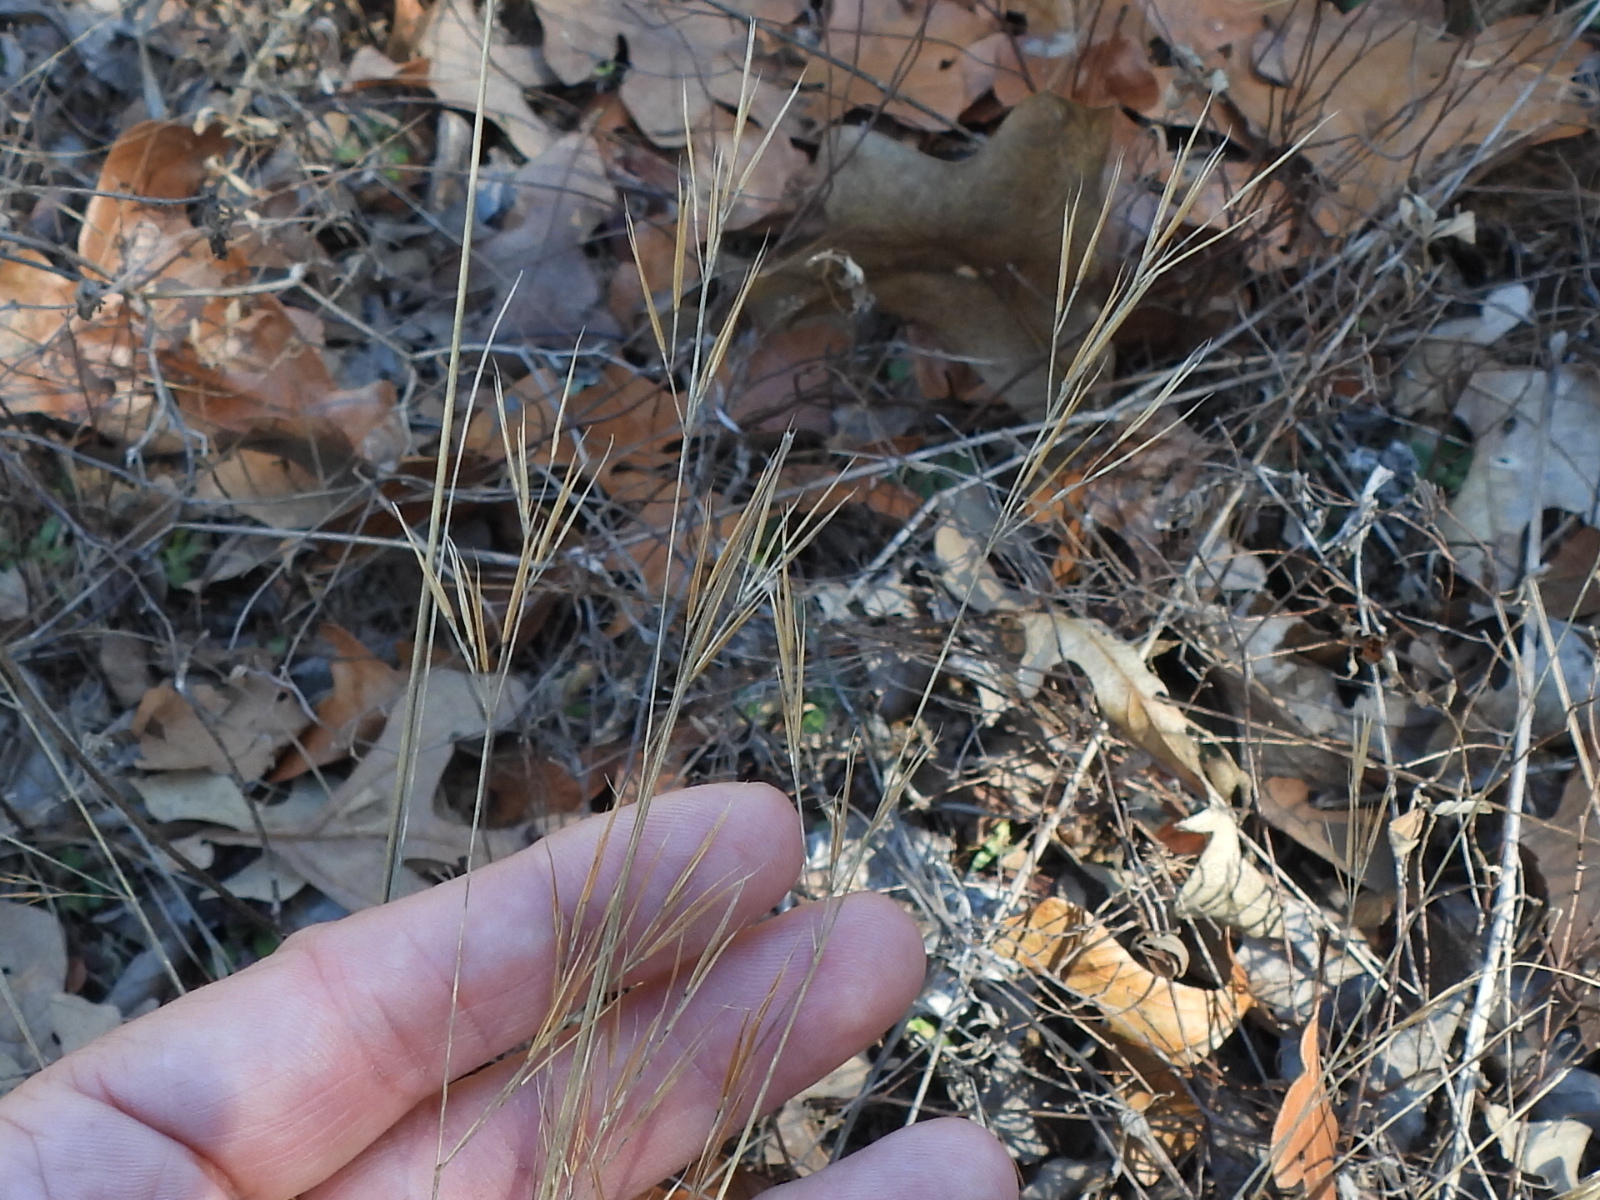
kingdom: Plantae
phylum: Tracheophyta
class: Liliopsida
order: Poales
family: Poaceae
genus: Aristida
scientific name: Aristida desmantha
